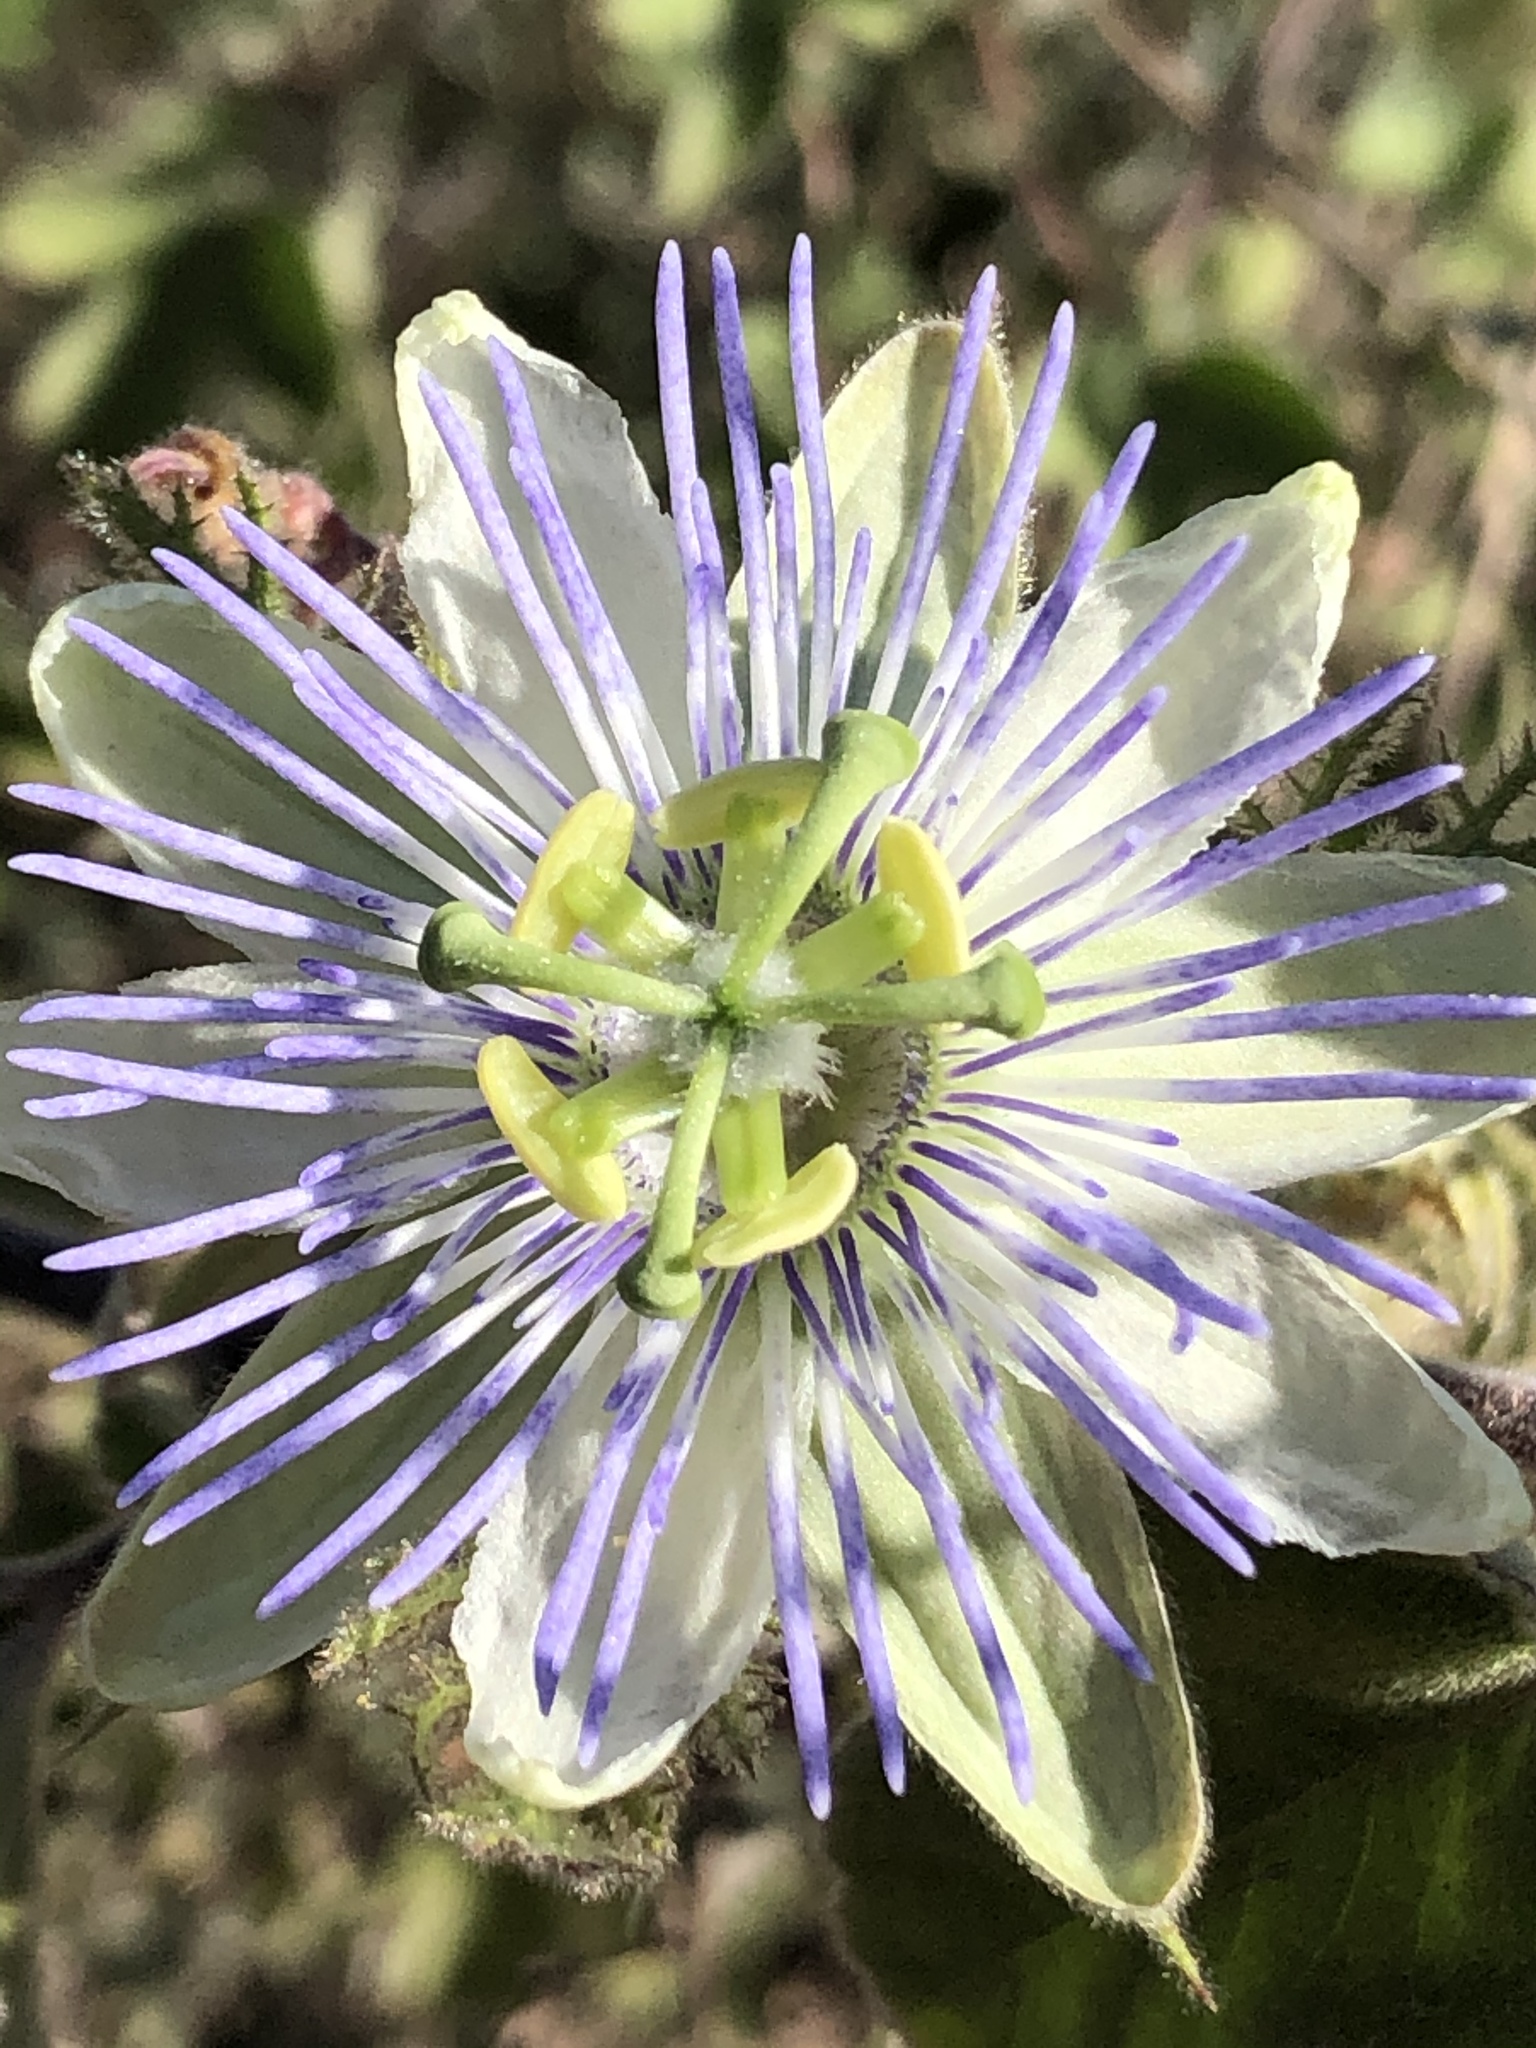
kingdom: Plantae
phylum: Tracheophyta
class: Magnoliopsida
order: Malpighiales
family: Passifloraceae
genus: Passiflora
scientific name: Passiflora arida
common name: Desert passionflower
